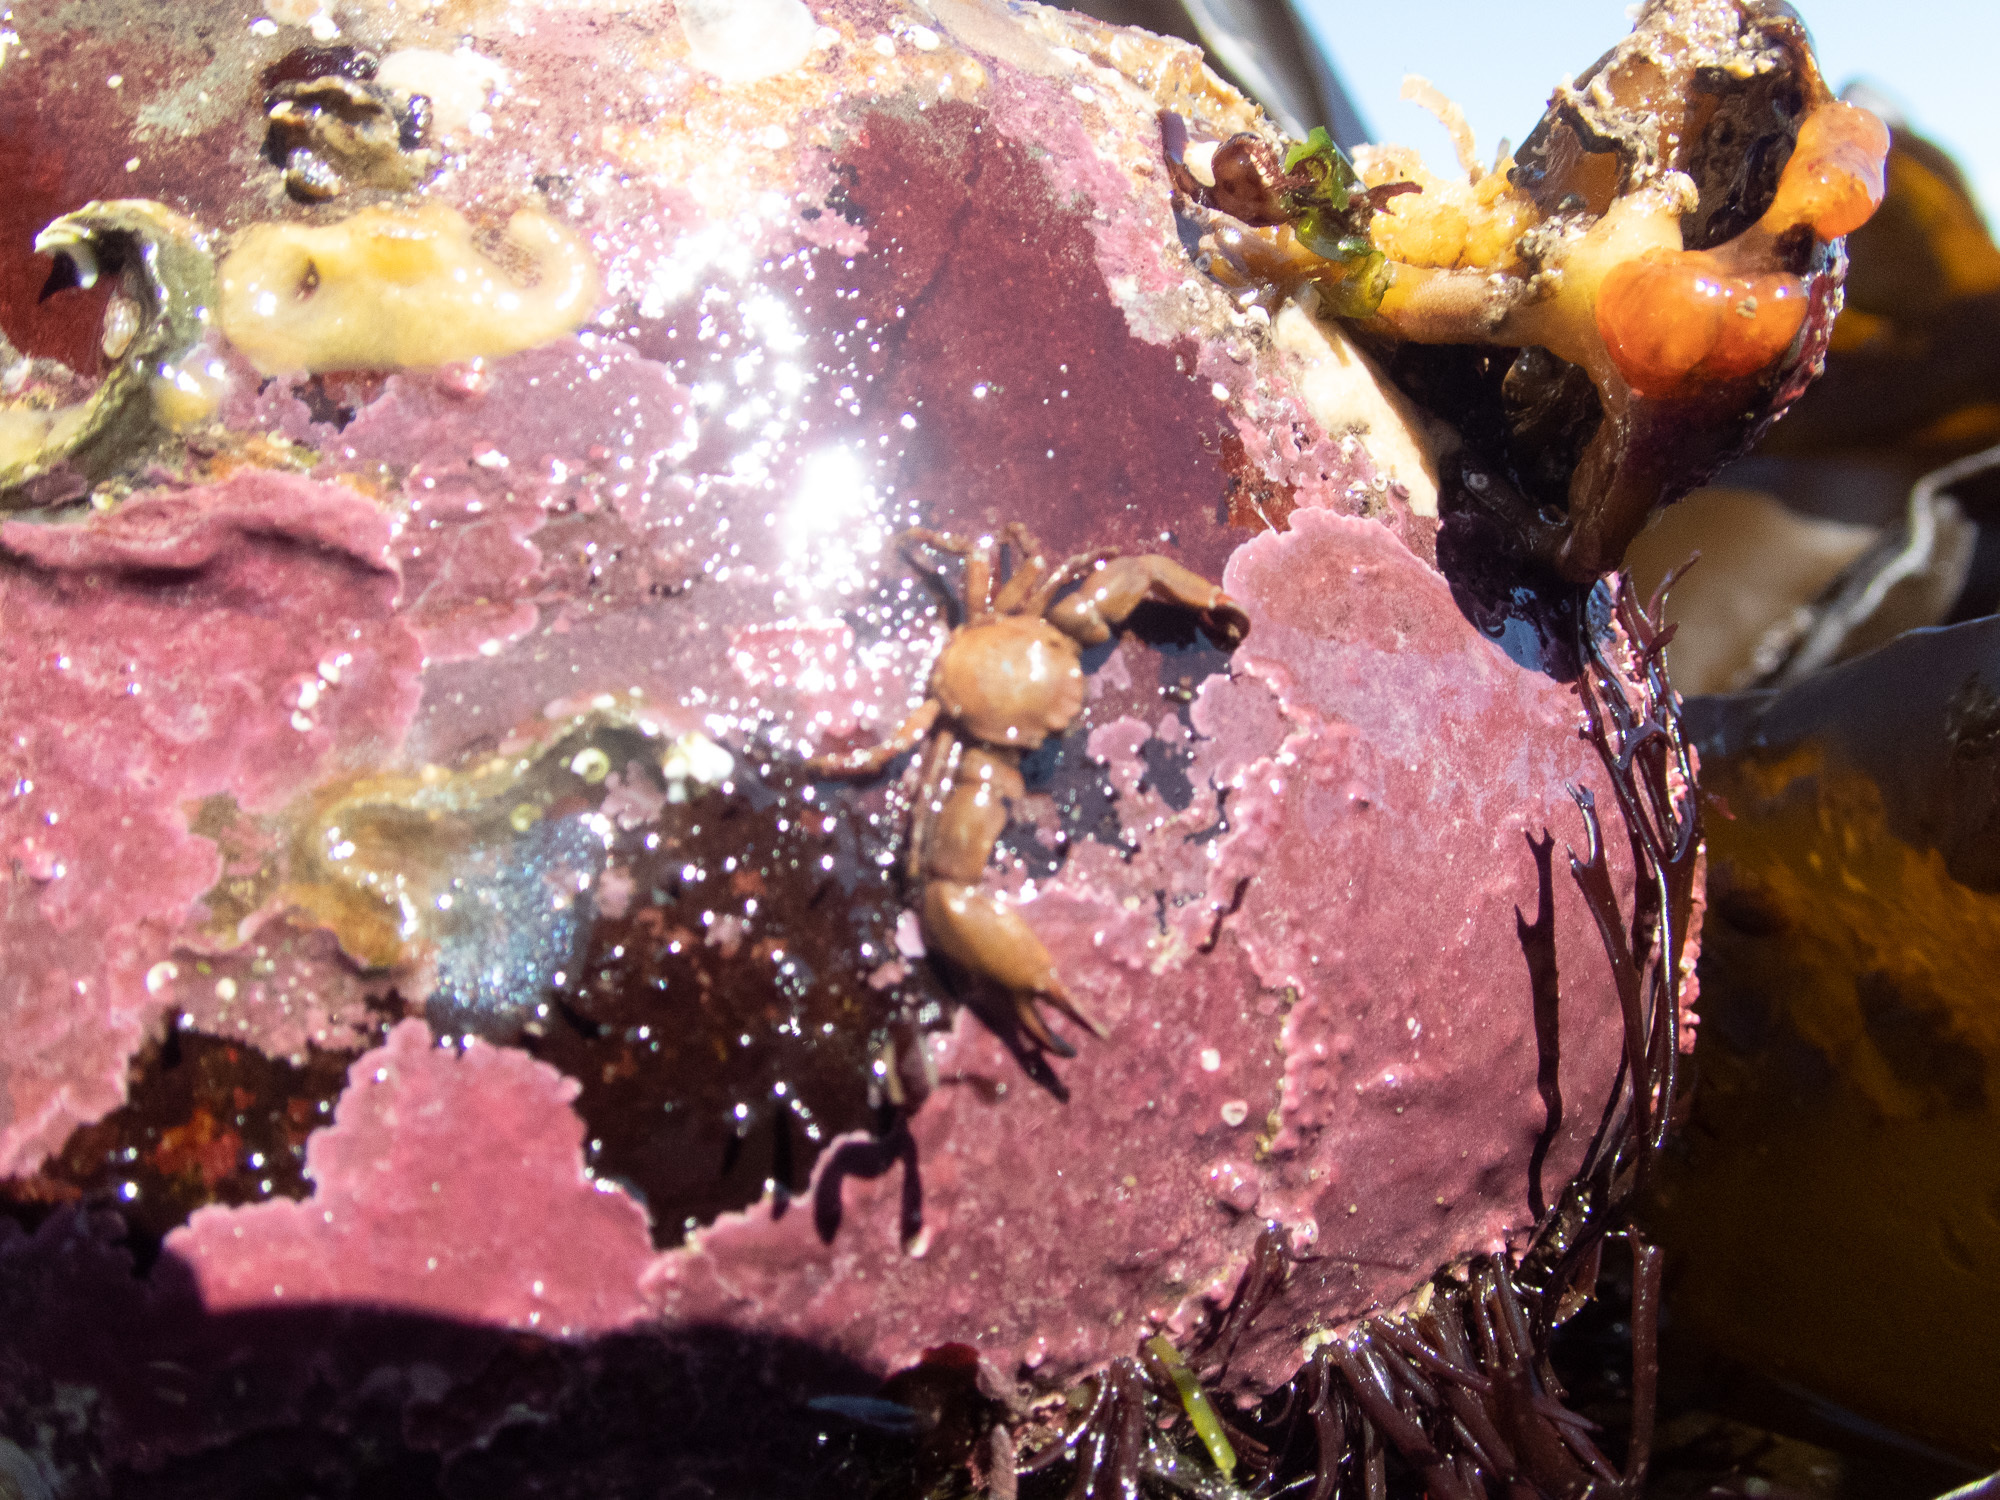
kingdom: Animalia
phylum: Arthropoda
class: Malacostraca
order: Decapoda
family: Porcellanidae
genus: Pisidia
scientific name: Pisidia longicornis
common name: Long clawed porcelain crab
